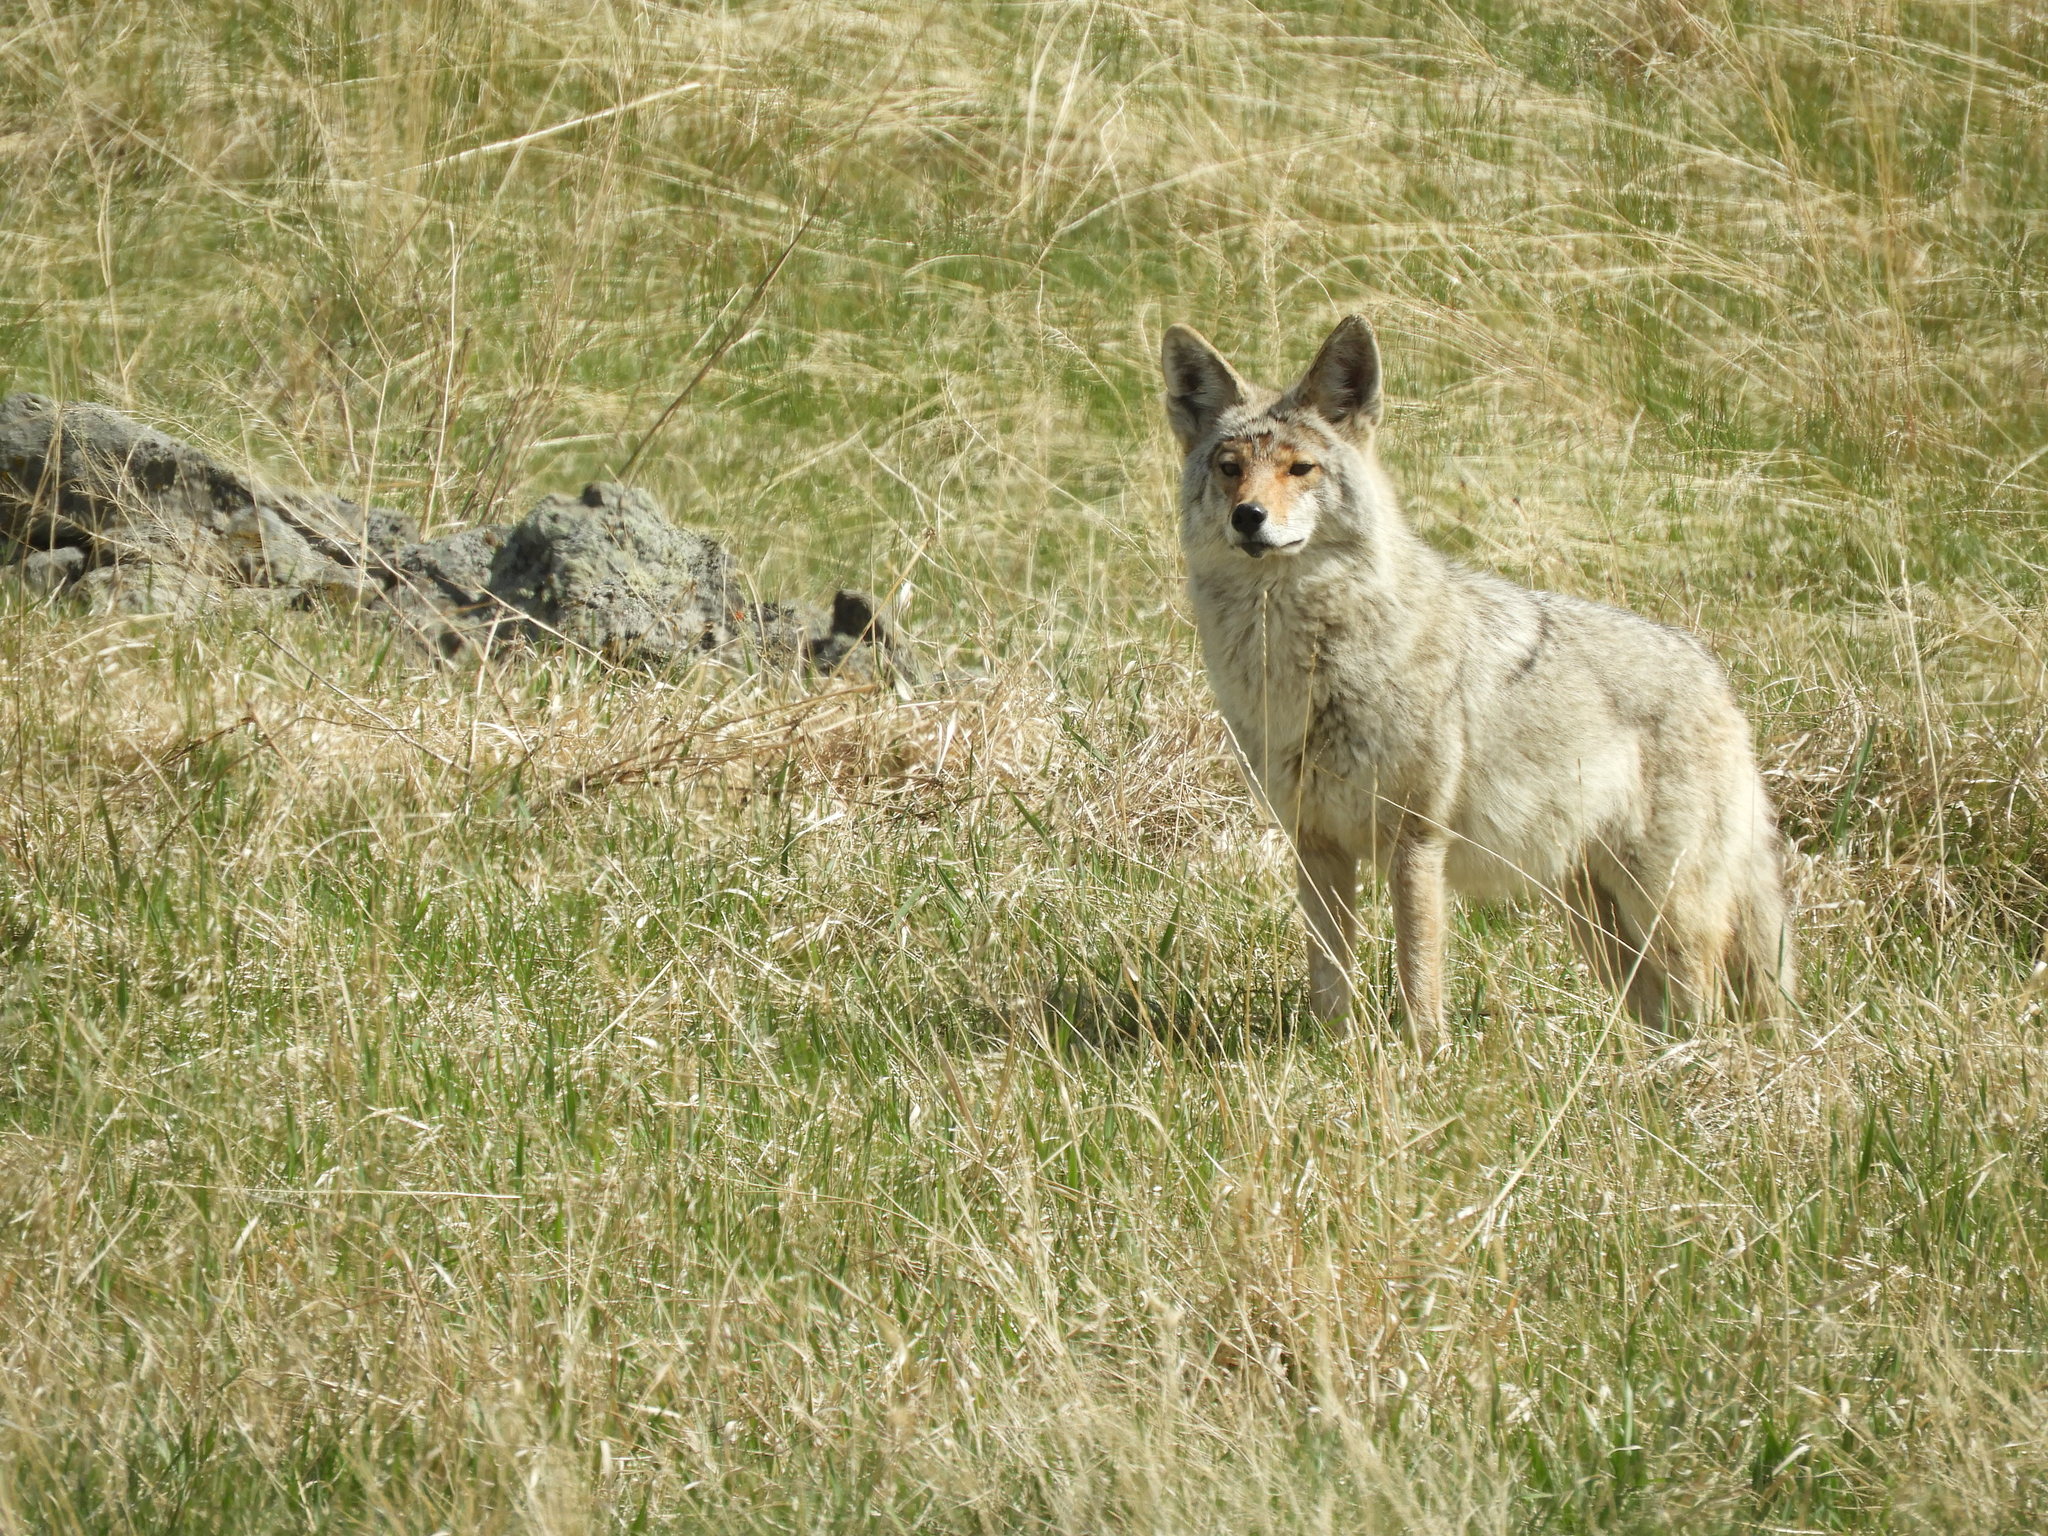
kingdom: Animalia
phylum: Chordata
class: Mammalia
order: Carnivora
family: Canidae
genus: Canis
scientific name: Canis latrans
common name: Coyote
